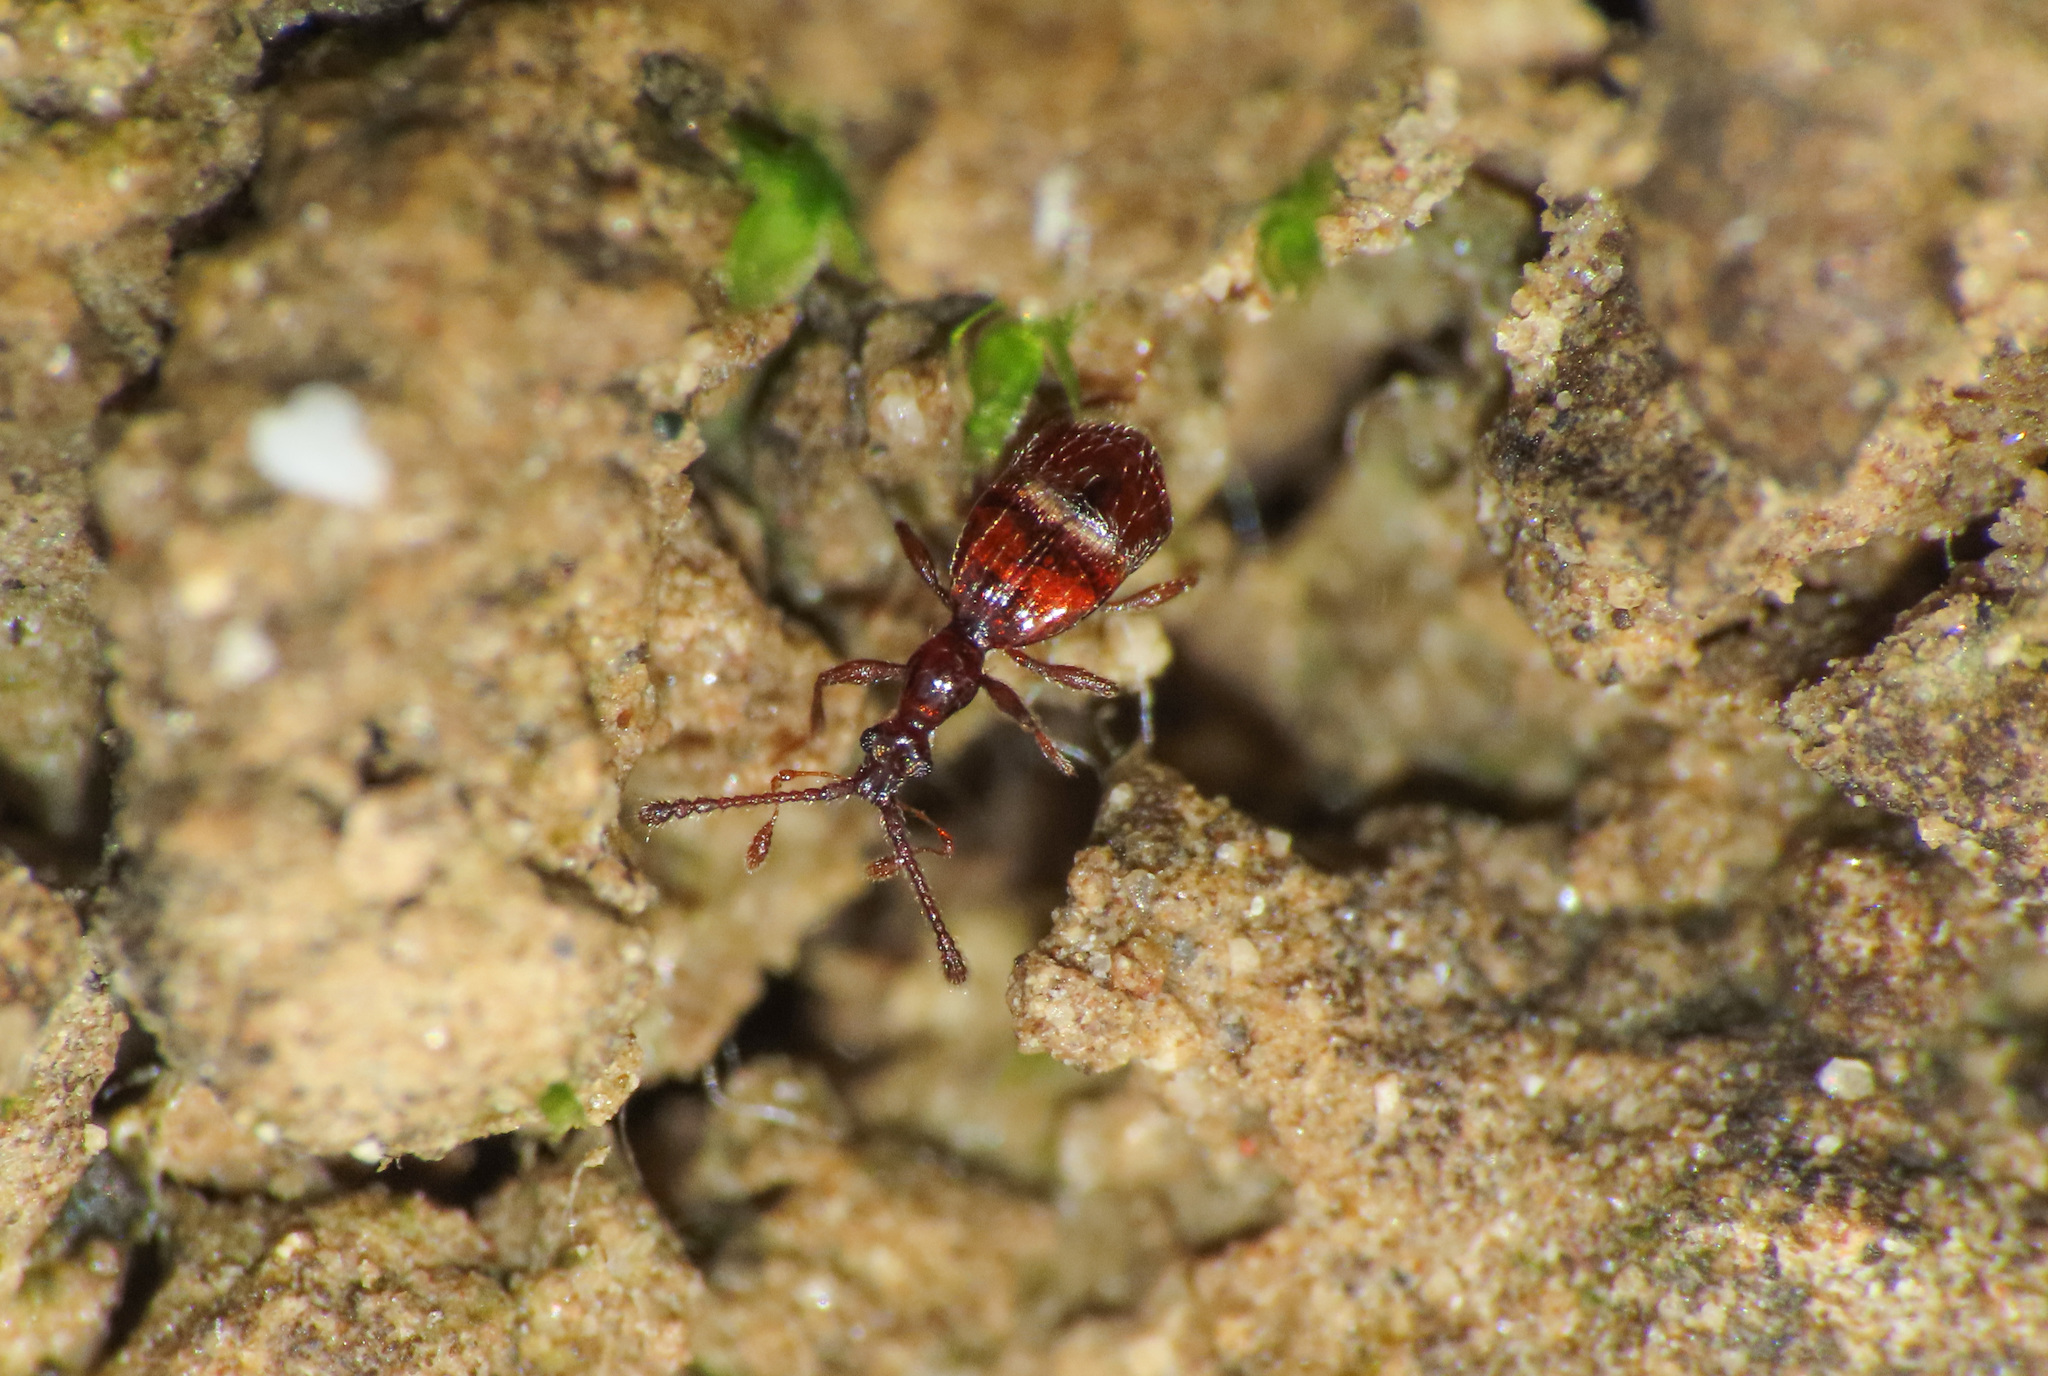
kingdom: Animalia
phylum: Arthropoda
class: Insecta
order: Coleoptera
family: Staphylinidae
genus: Pselaphus
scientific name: Pselaphus heisei
